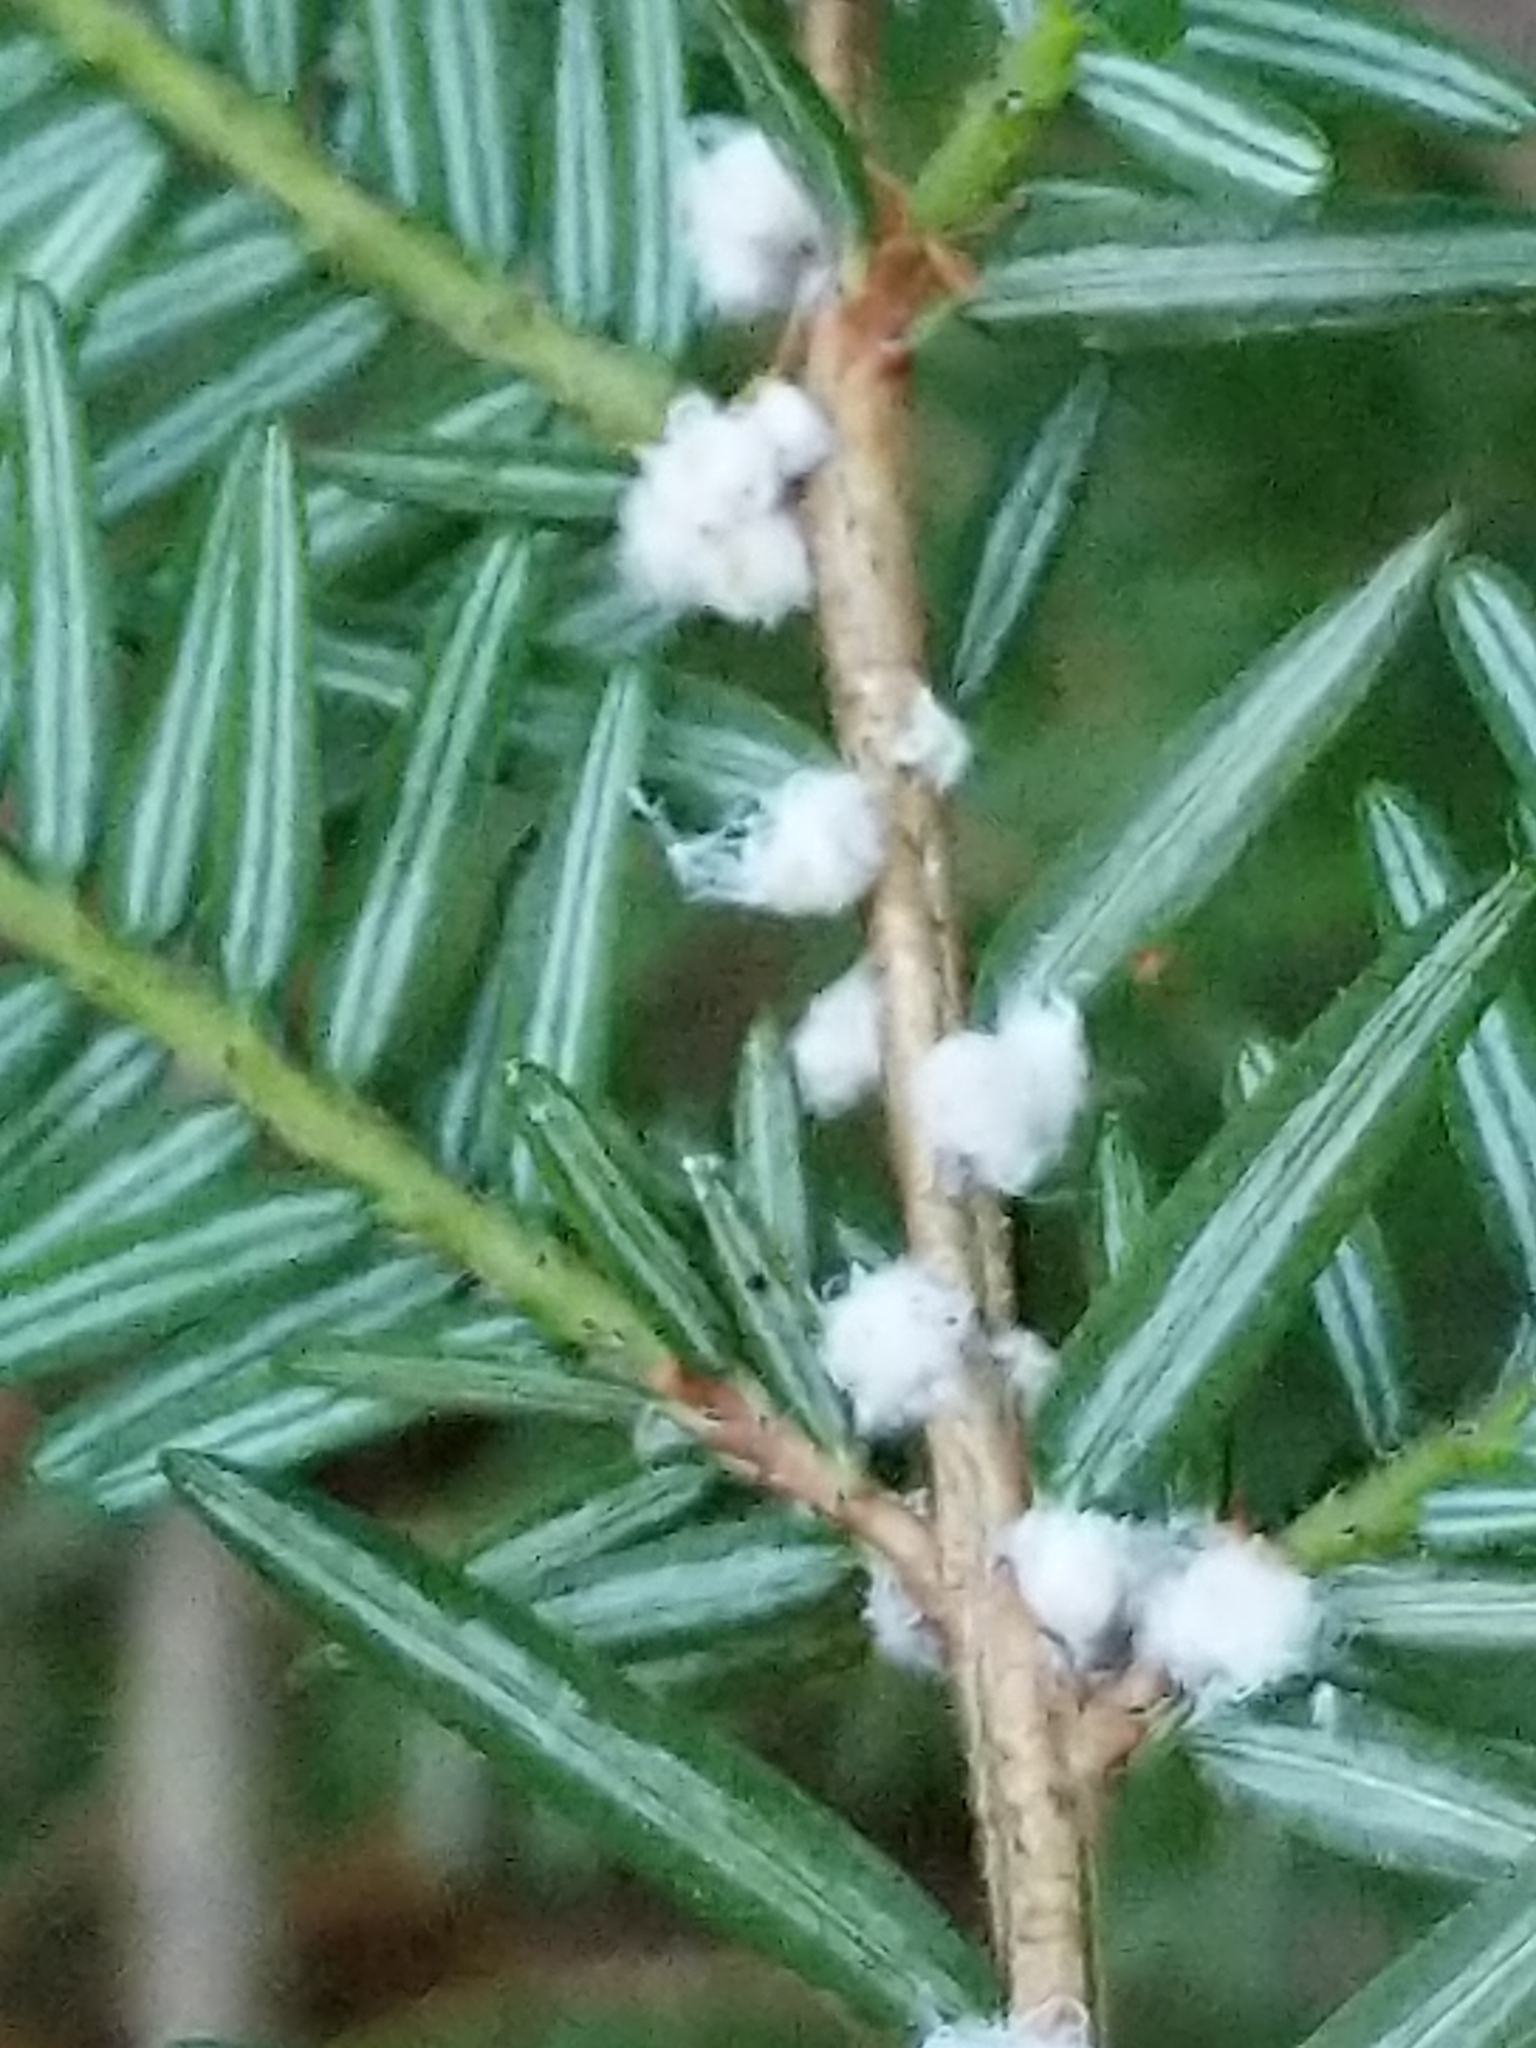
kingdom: Animalia
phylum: Arthropoda
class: Insecta
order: Hemiptera
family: Adelgidae
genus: Adelges
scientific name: Adelges tsugae
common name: Hemlock woolly adelgid
